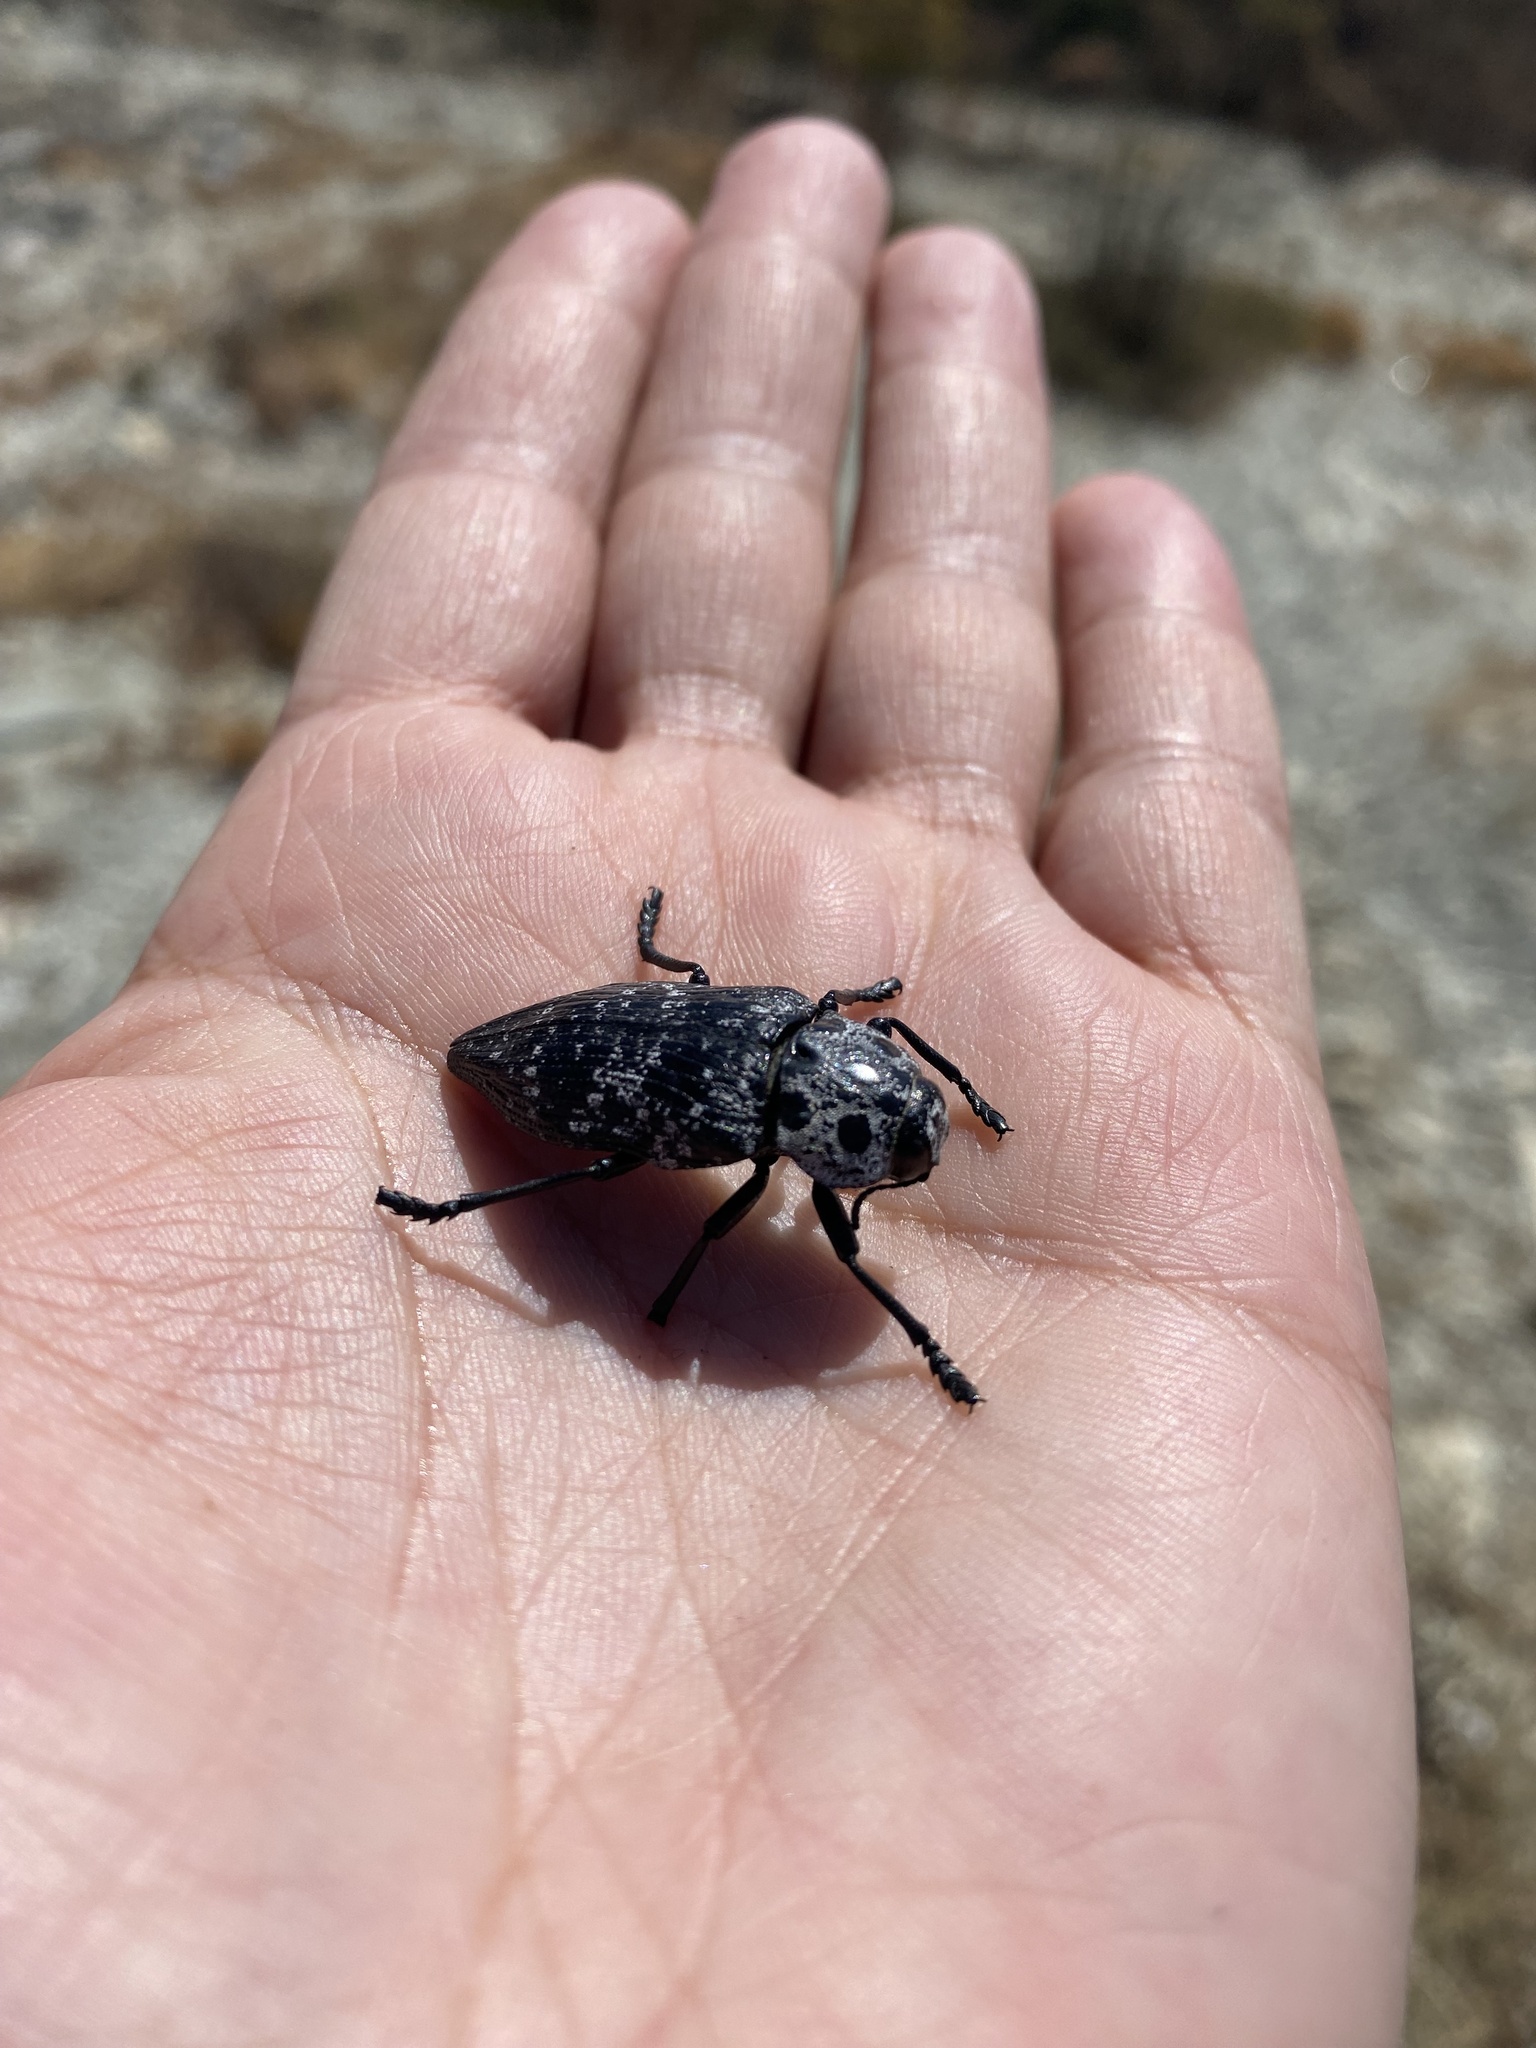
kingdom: Animalia
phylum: Arthropoda
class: Insecta
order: Coleoptera
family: Buprestidae
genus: Capnodis
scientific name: Capnodis cariosa
